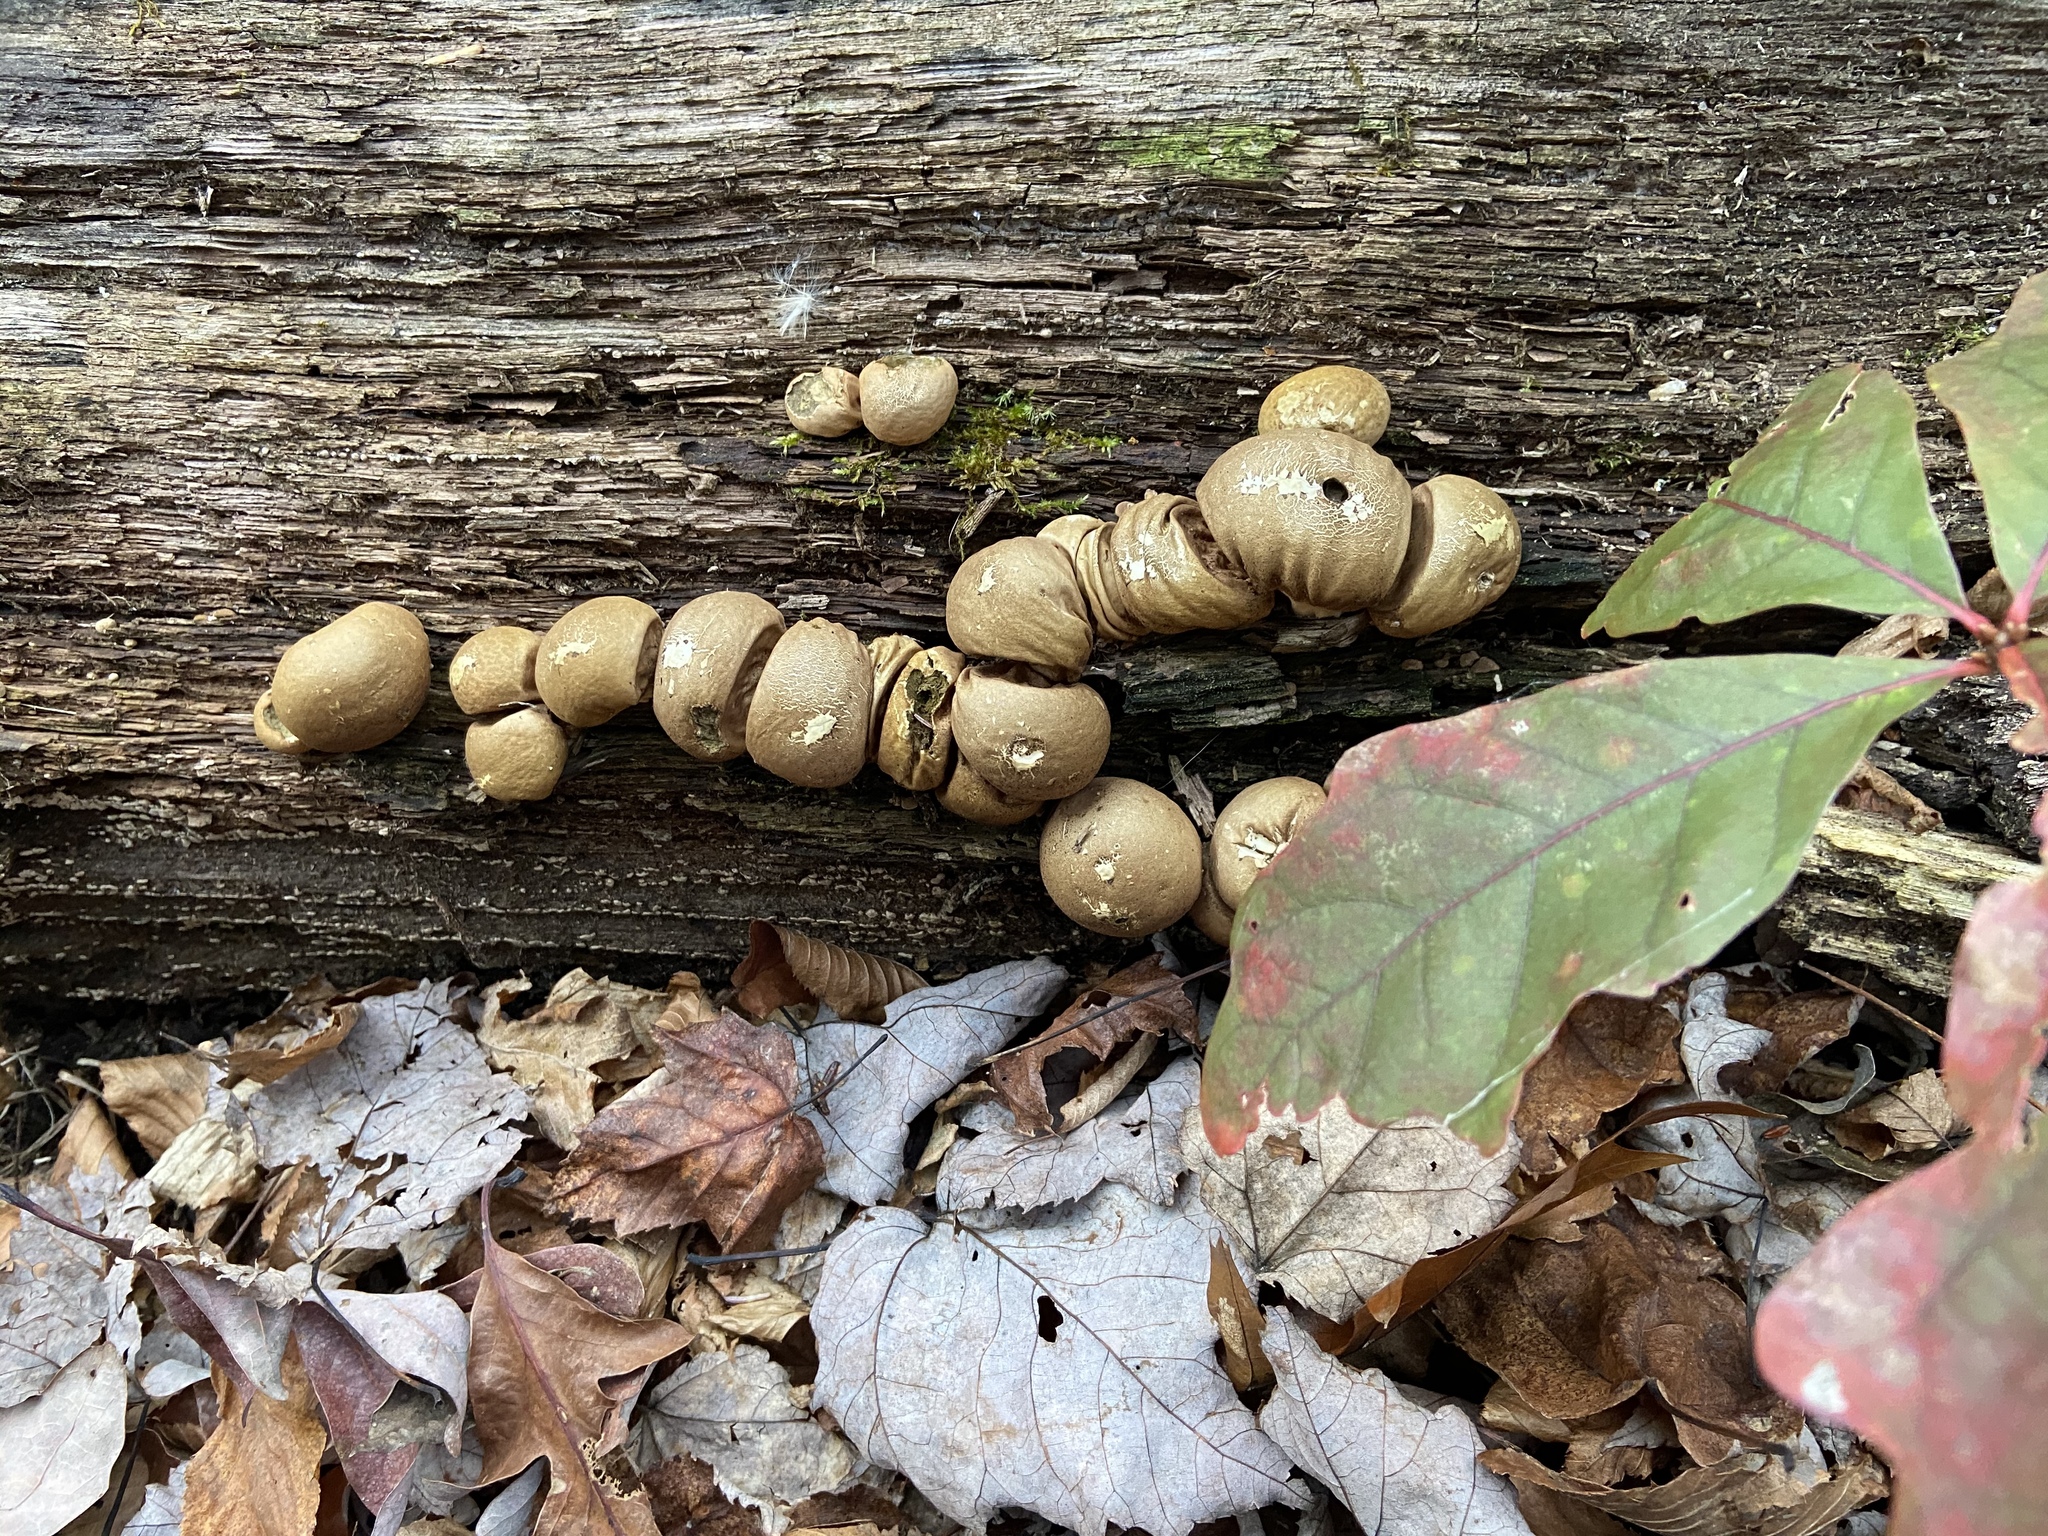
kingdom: Fungi
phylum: Basidiomycota
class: Agaricomycetes
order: Agaricales
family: Lycoperdaceae
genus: Apioperdon
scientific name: Apioperdon pyriforme
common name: Pear-shaped puffball
